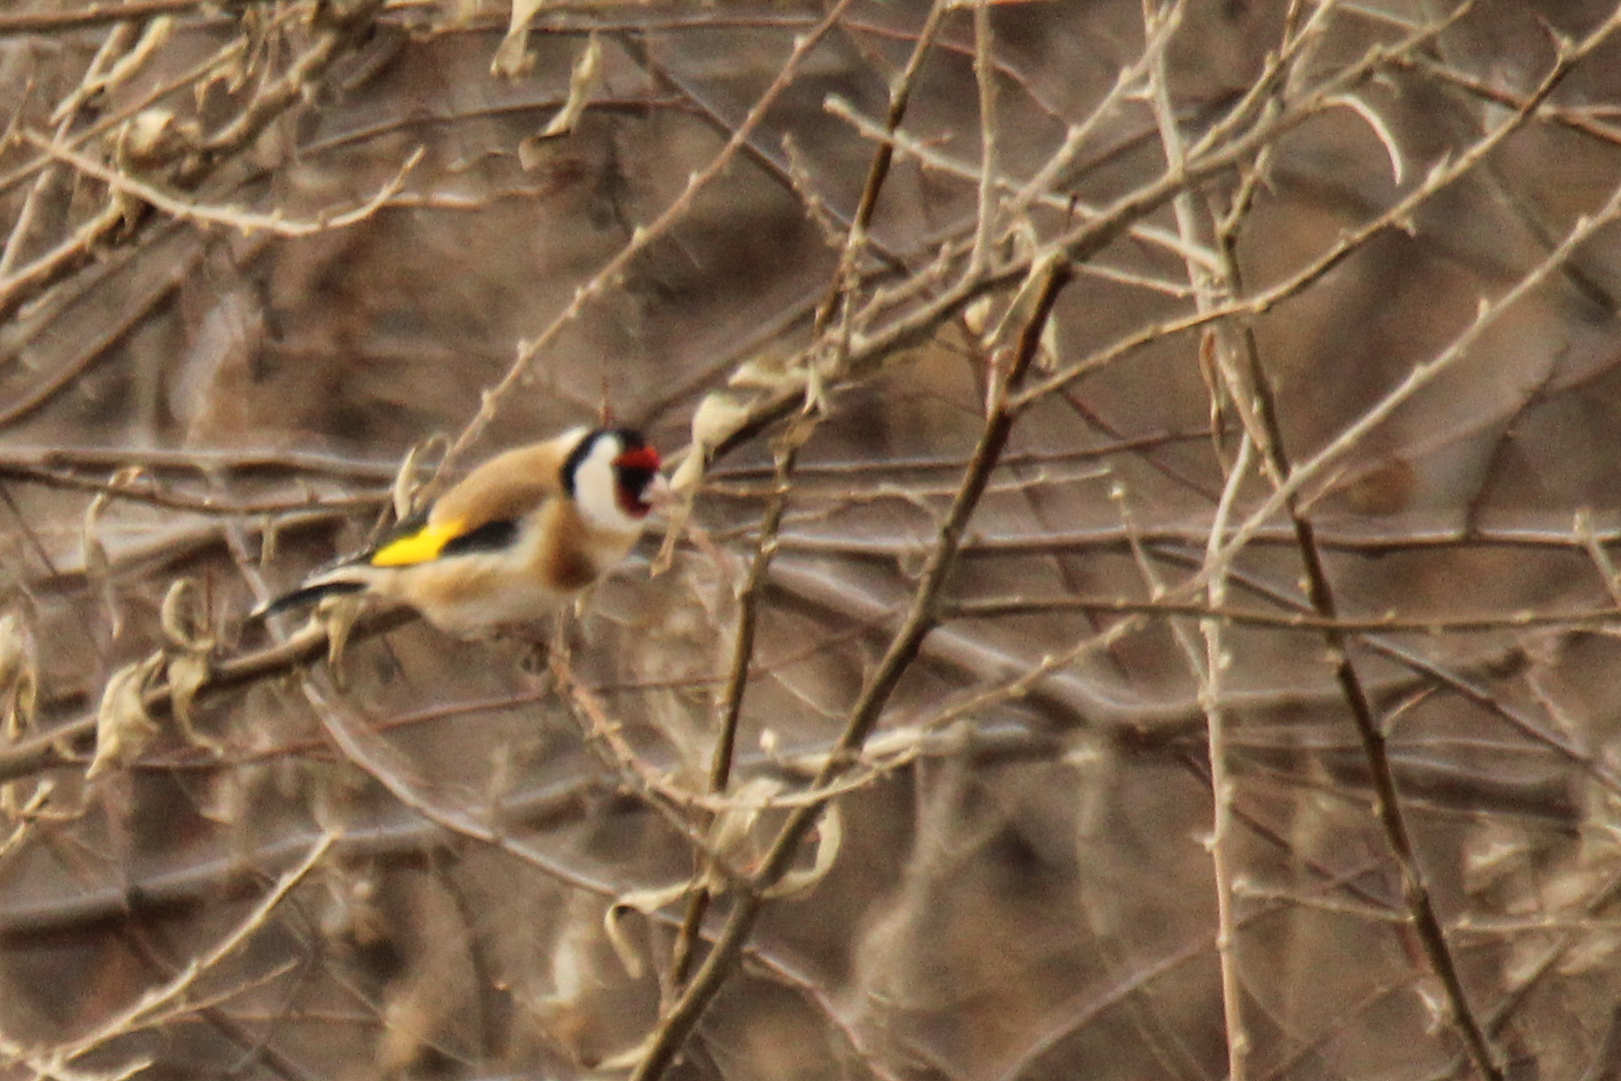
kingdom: Animalia
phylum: Chordata
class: Aves
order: Passeriformes
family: Fringillidae
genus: Carduelis
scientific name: Carduelis carduelis
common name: European goldfinch
